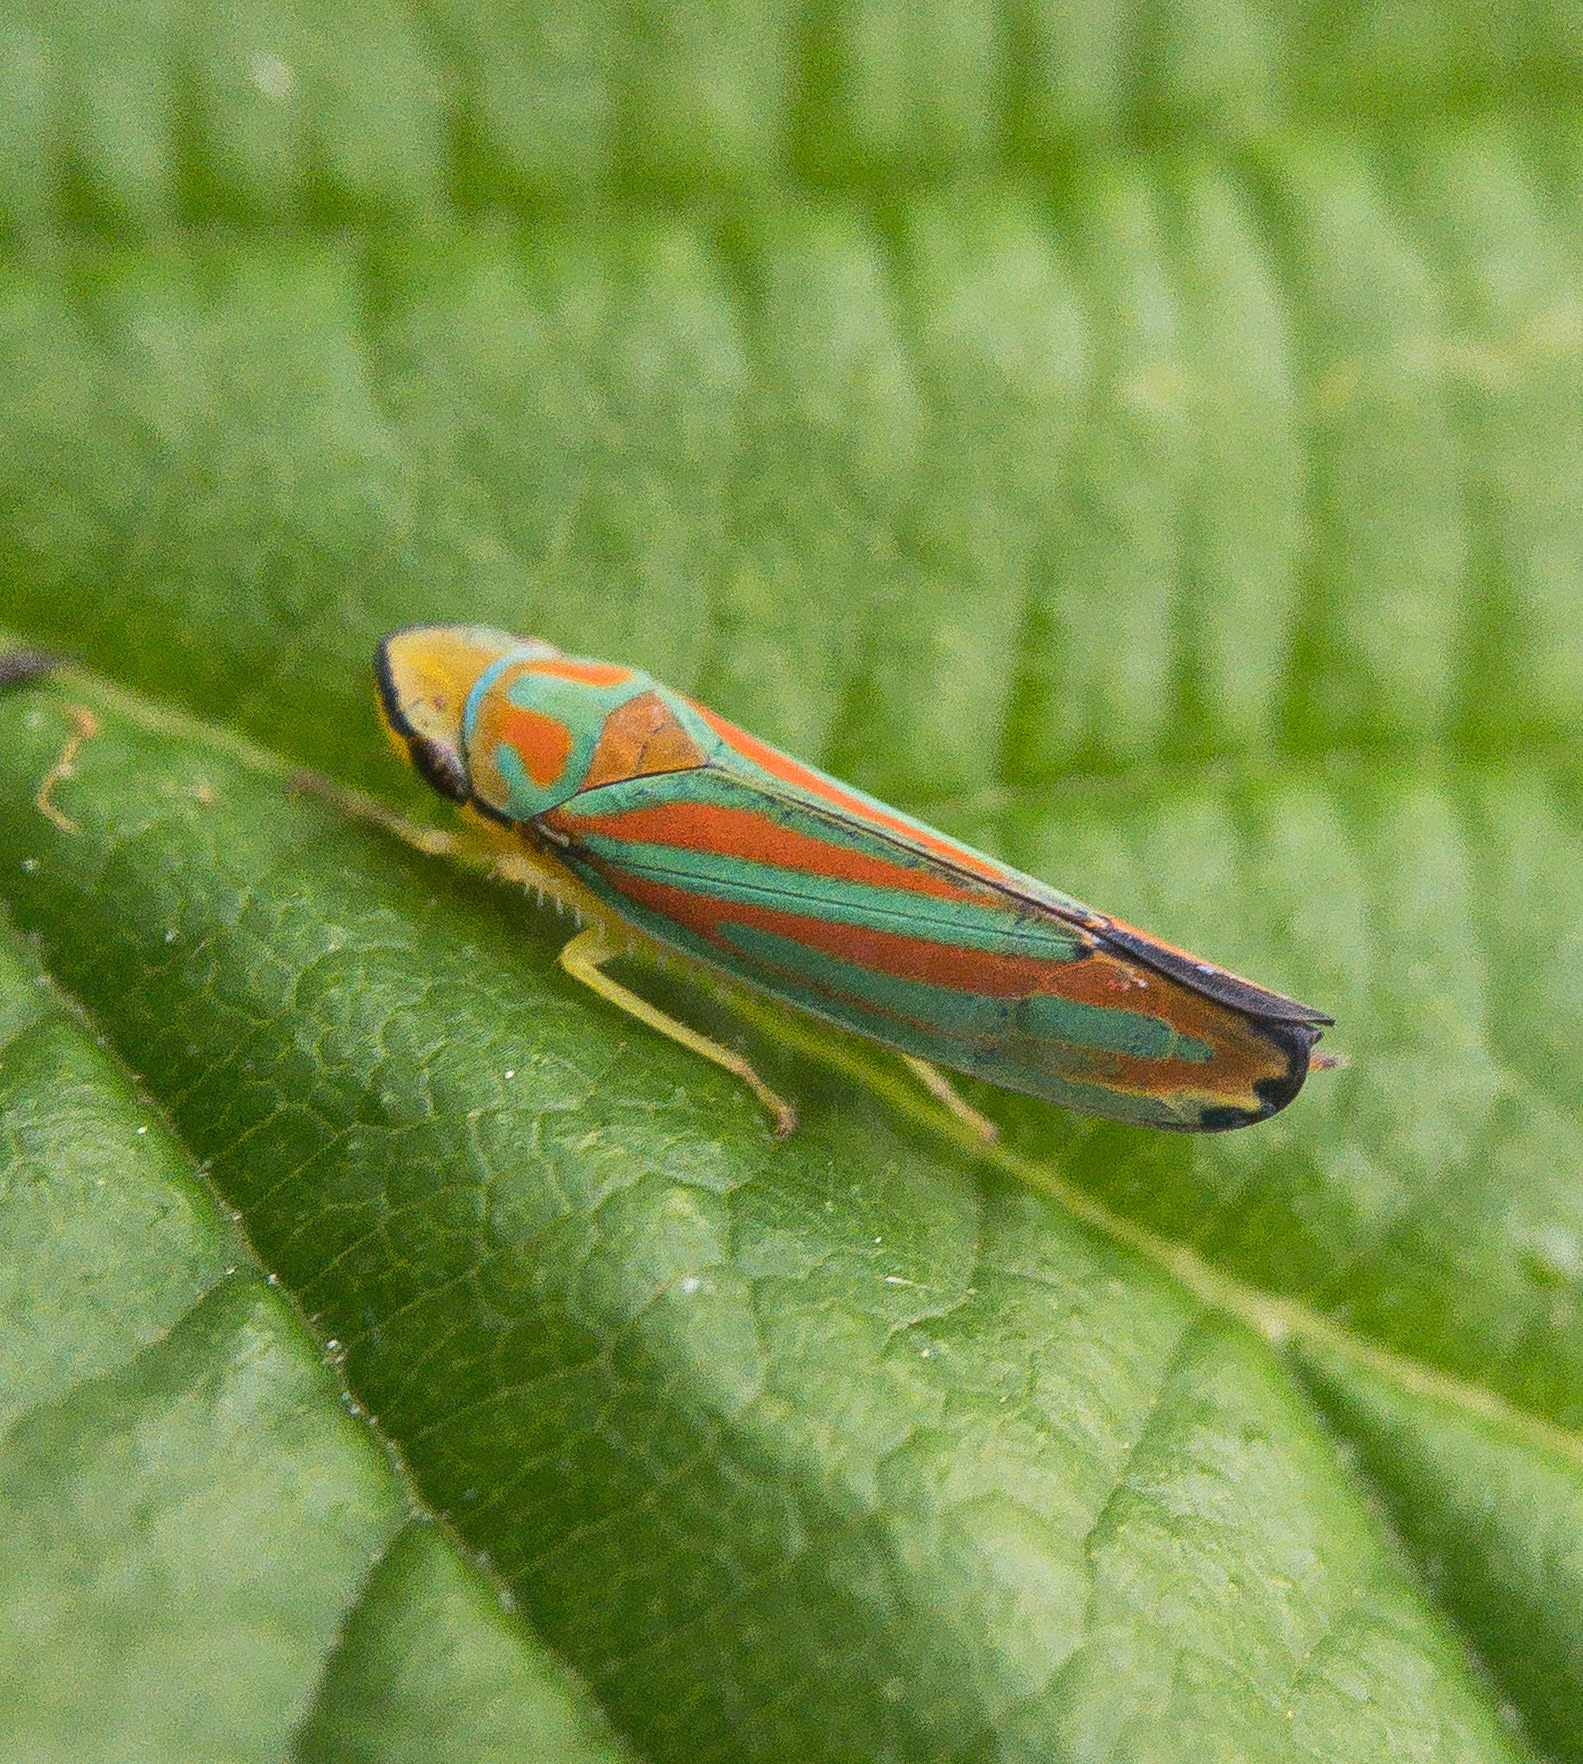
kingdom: Animalia
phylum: Arthropoda
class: Insecta
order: Hemiptera
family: Cicadellidae
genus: Graphocephala
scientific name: Graphocephala coccinea
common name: Candy-striped leafhopper
